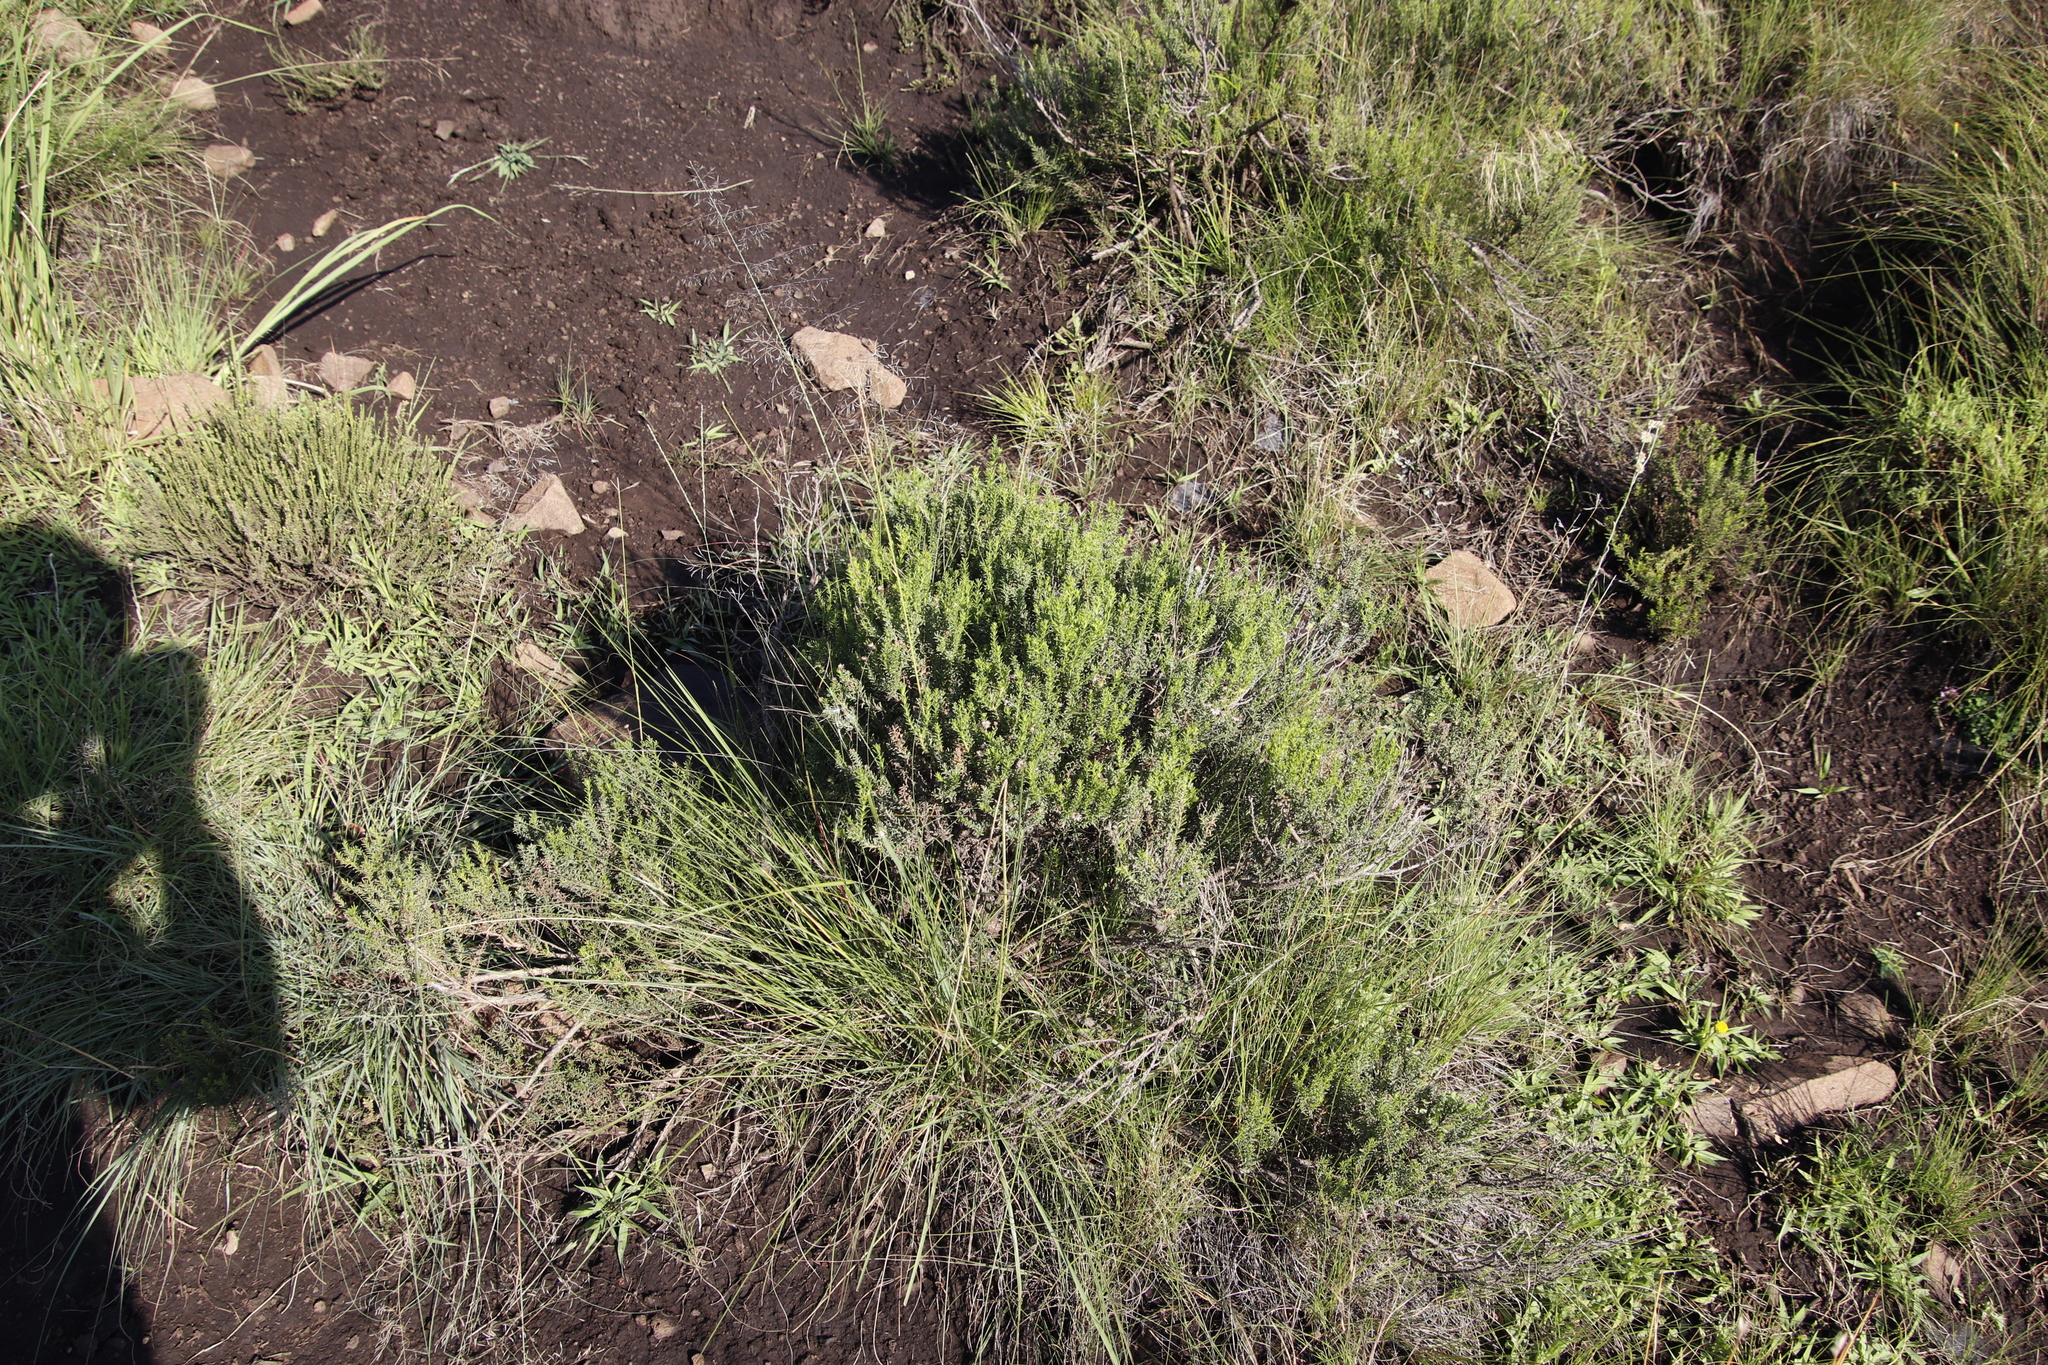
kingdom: Plantae
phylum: Tracheophyta
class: Magnoliopsida
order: Asterales
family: Asteraceae
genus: Chrysocoma
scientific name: Chrysocoma ciliata
